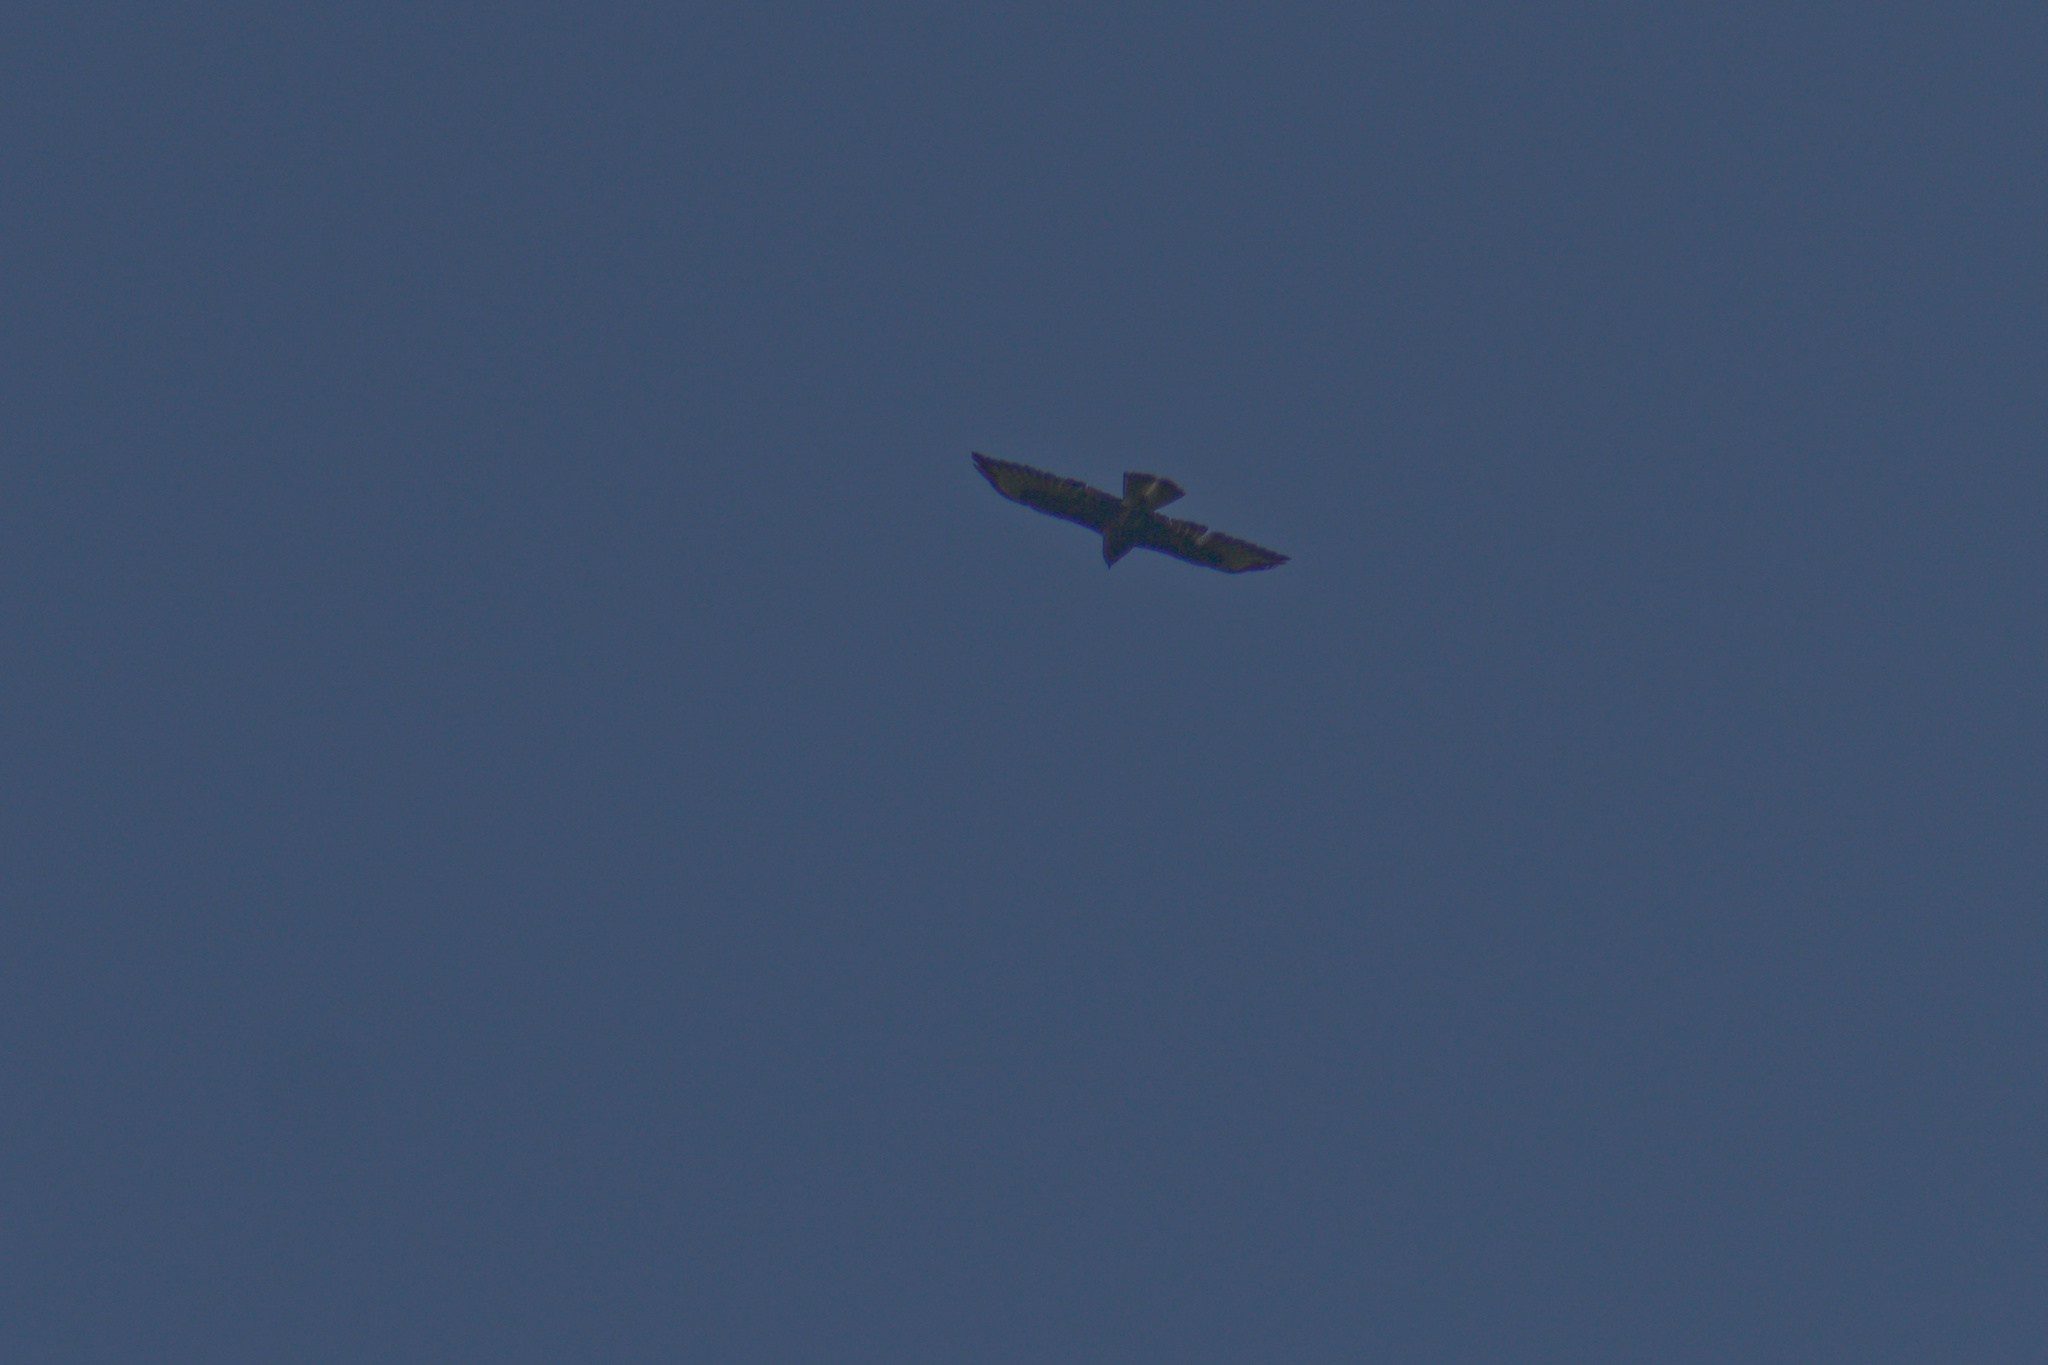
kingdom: Animalia
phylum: Chordata
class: Aves
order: Accipitriformes
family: Accipitridae
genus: Buteo
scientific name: Buteo buteo
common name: Common buzzard
